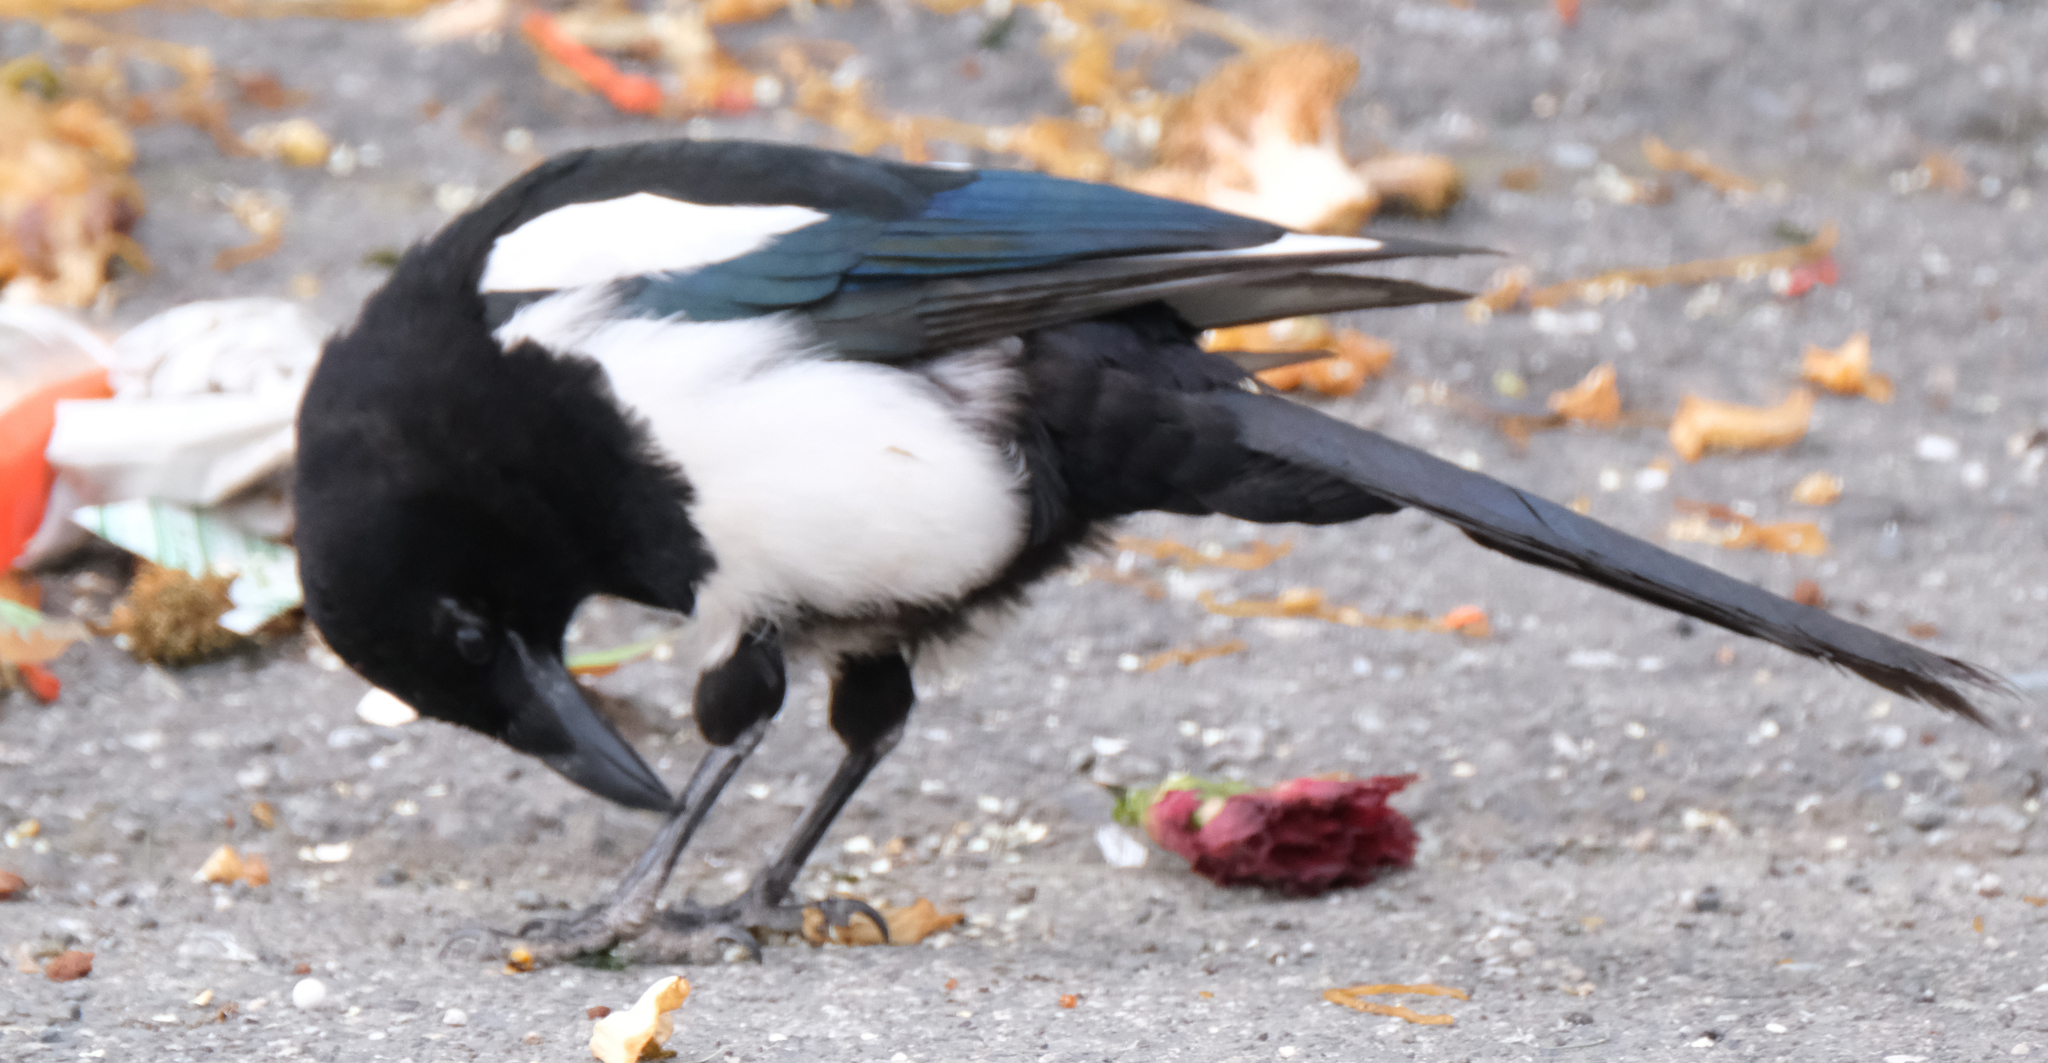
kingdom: Animalia
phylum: Chordata
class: Aves
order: Passeriformes
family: Corvidae
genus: Pica
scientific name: Pica hudsonia
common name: Black-billed magpie
